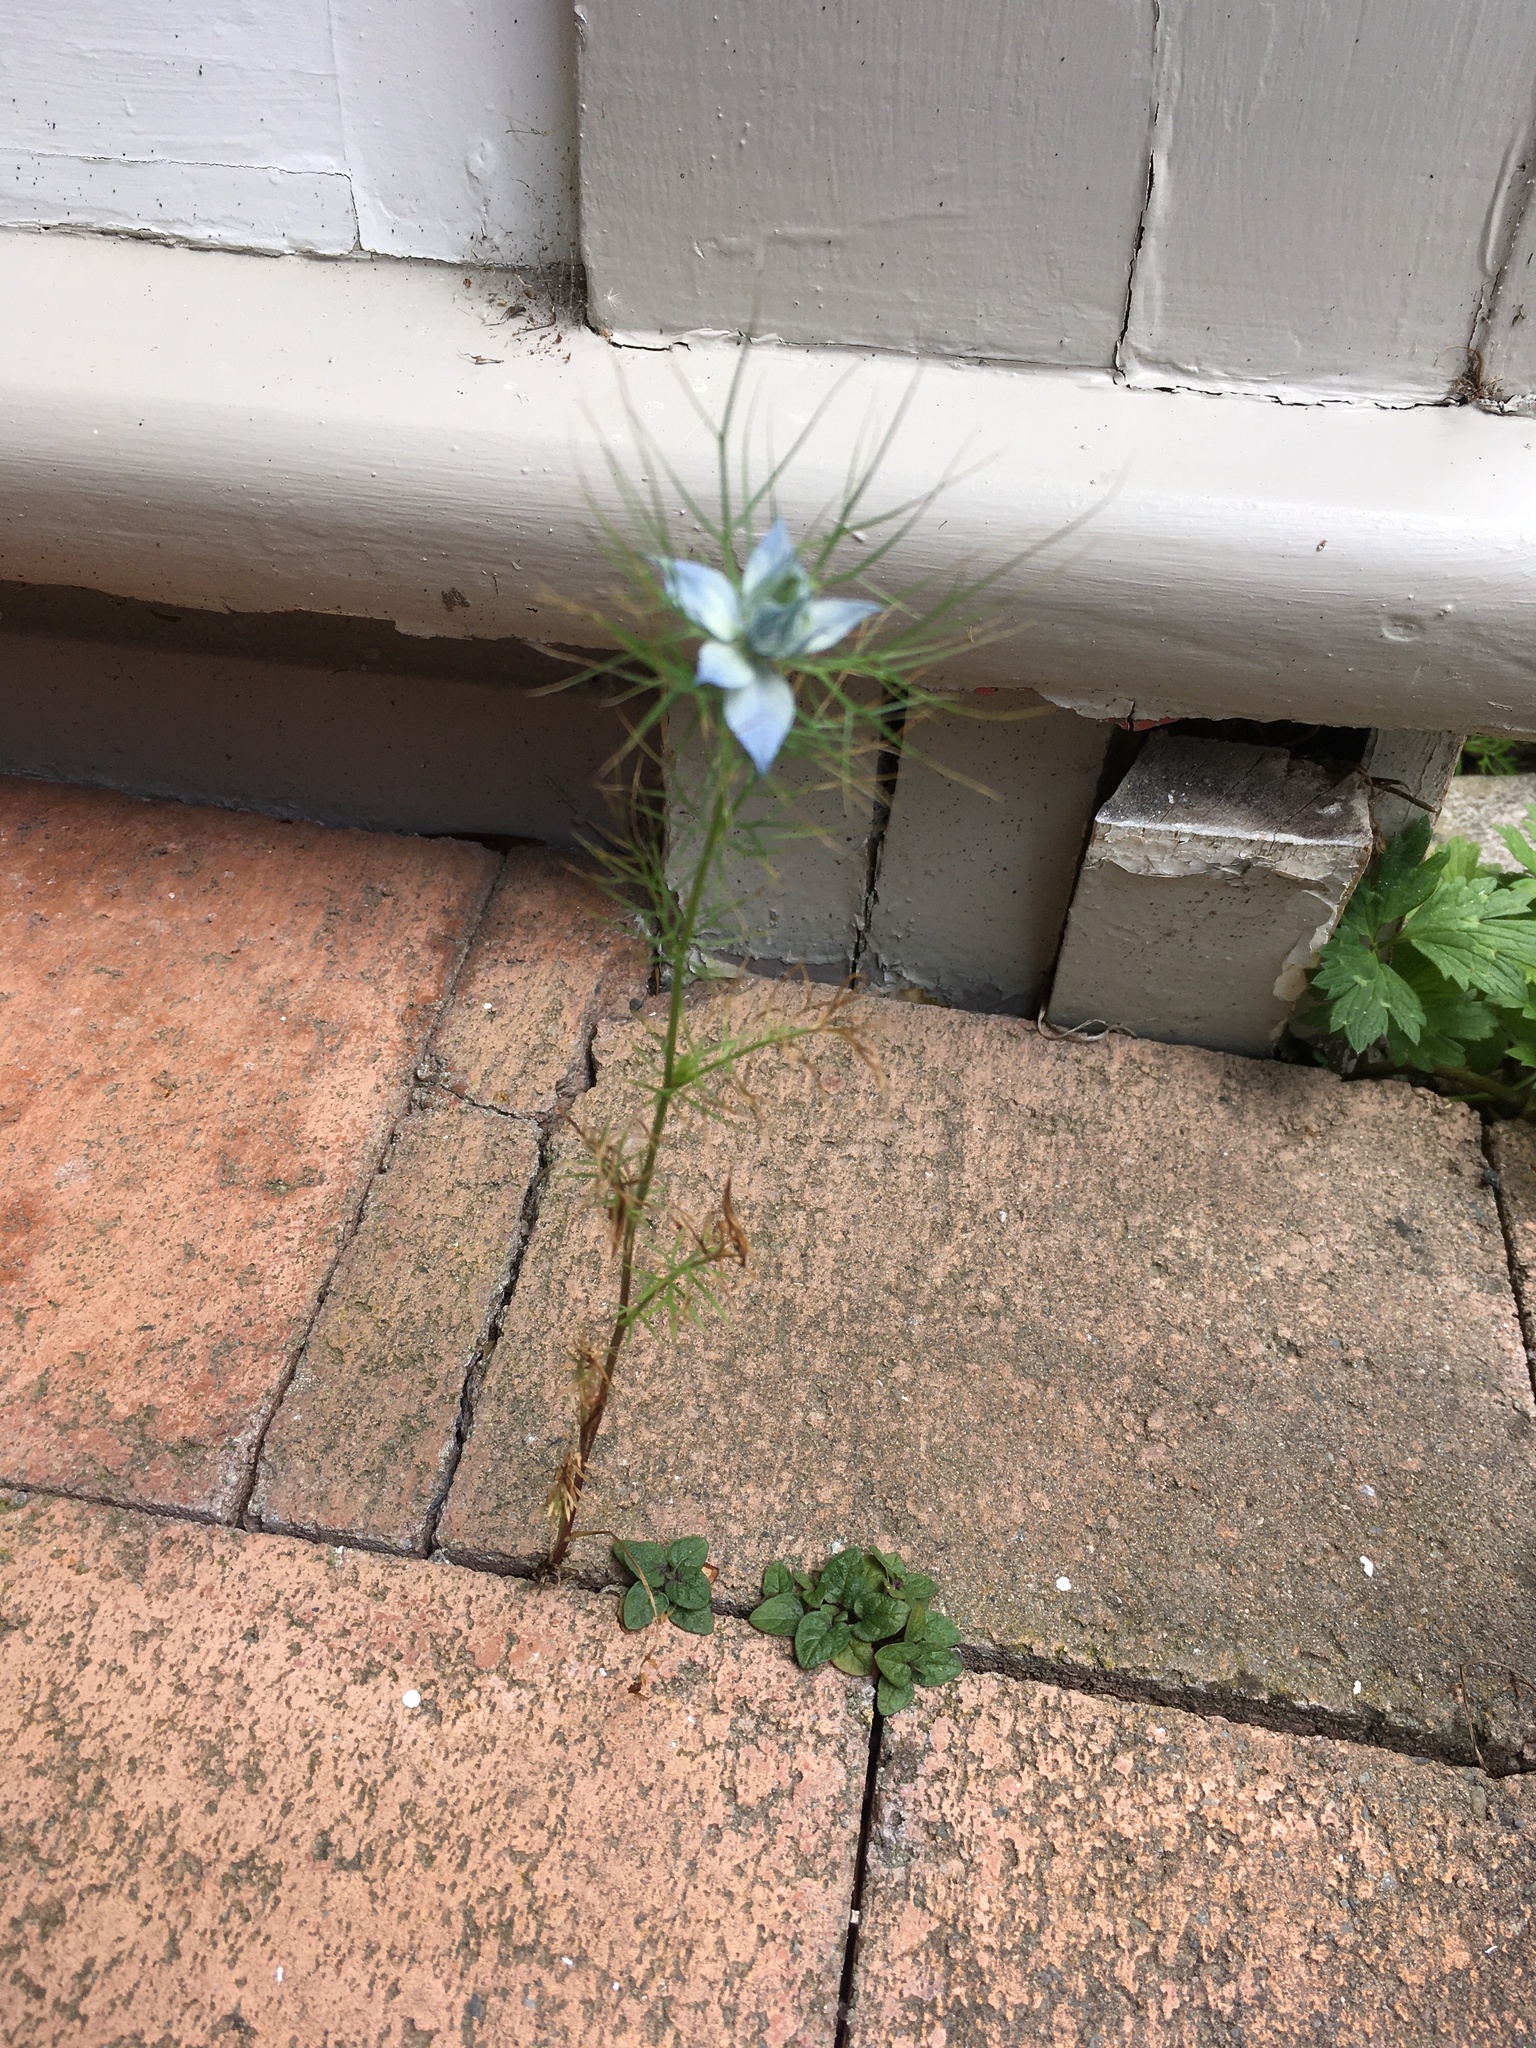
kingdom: Plantae
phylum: Tracheophyta
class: Magnoliopsida
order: Ranunculales
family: Ranunculaceae
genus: Nigella
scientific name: Nigella damascena
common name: Love-in-a-mist
